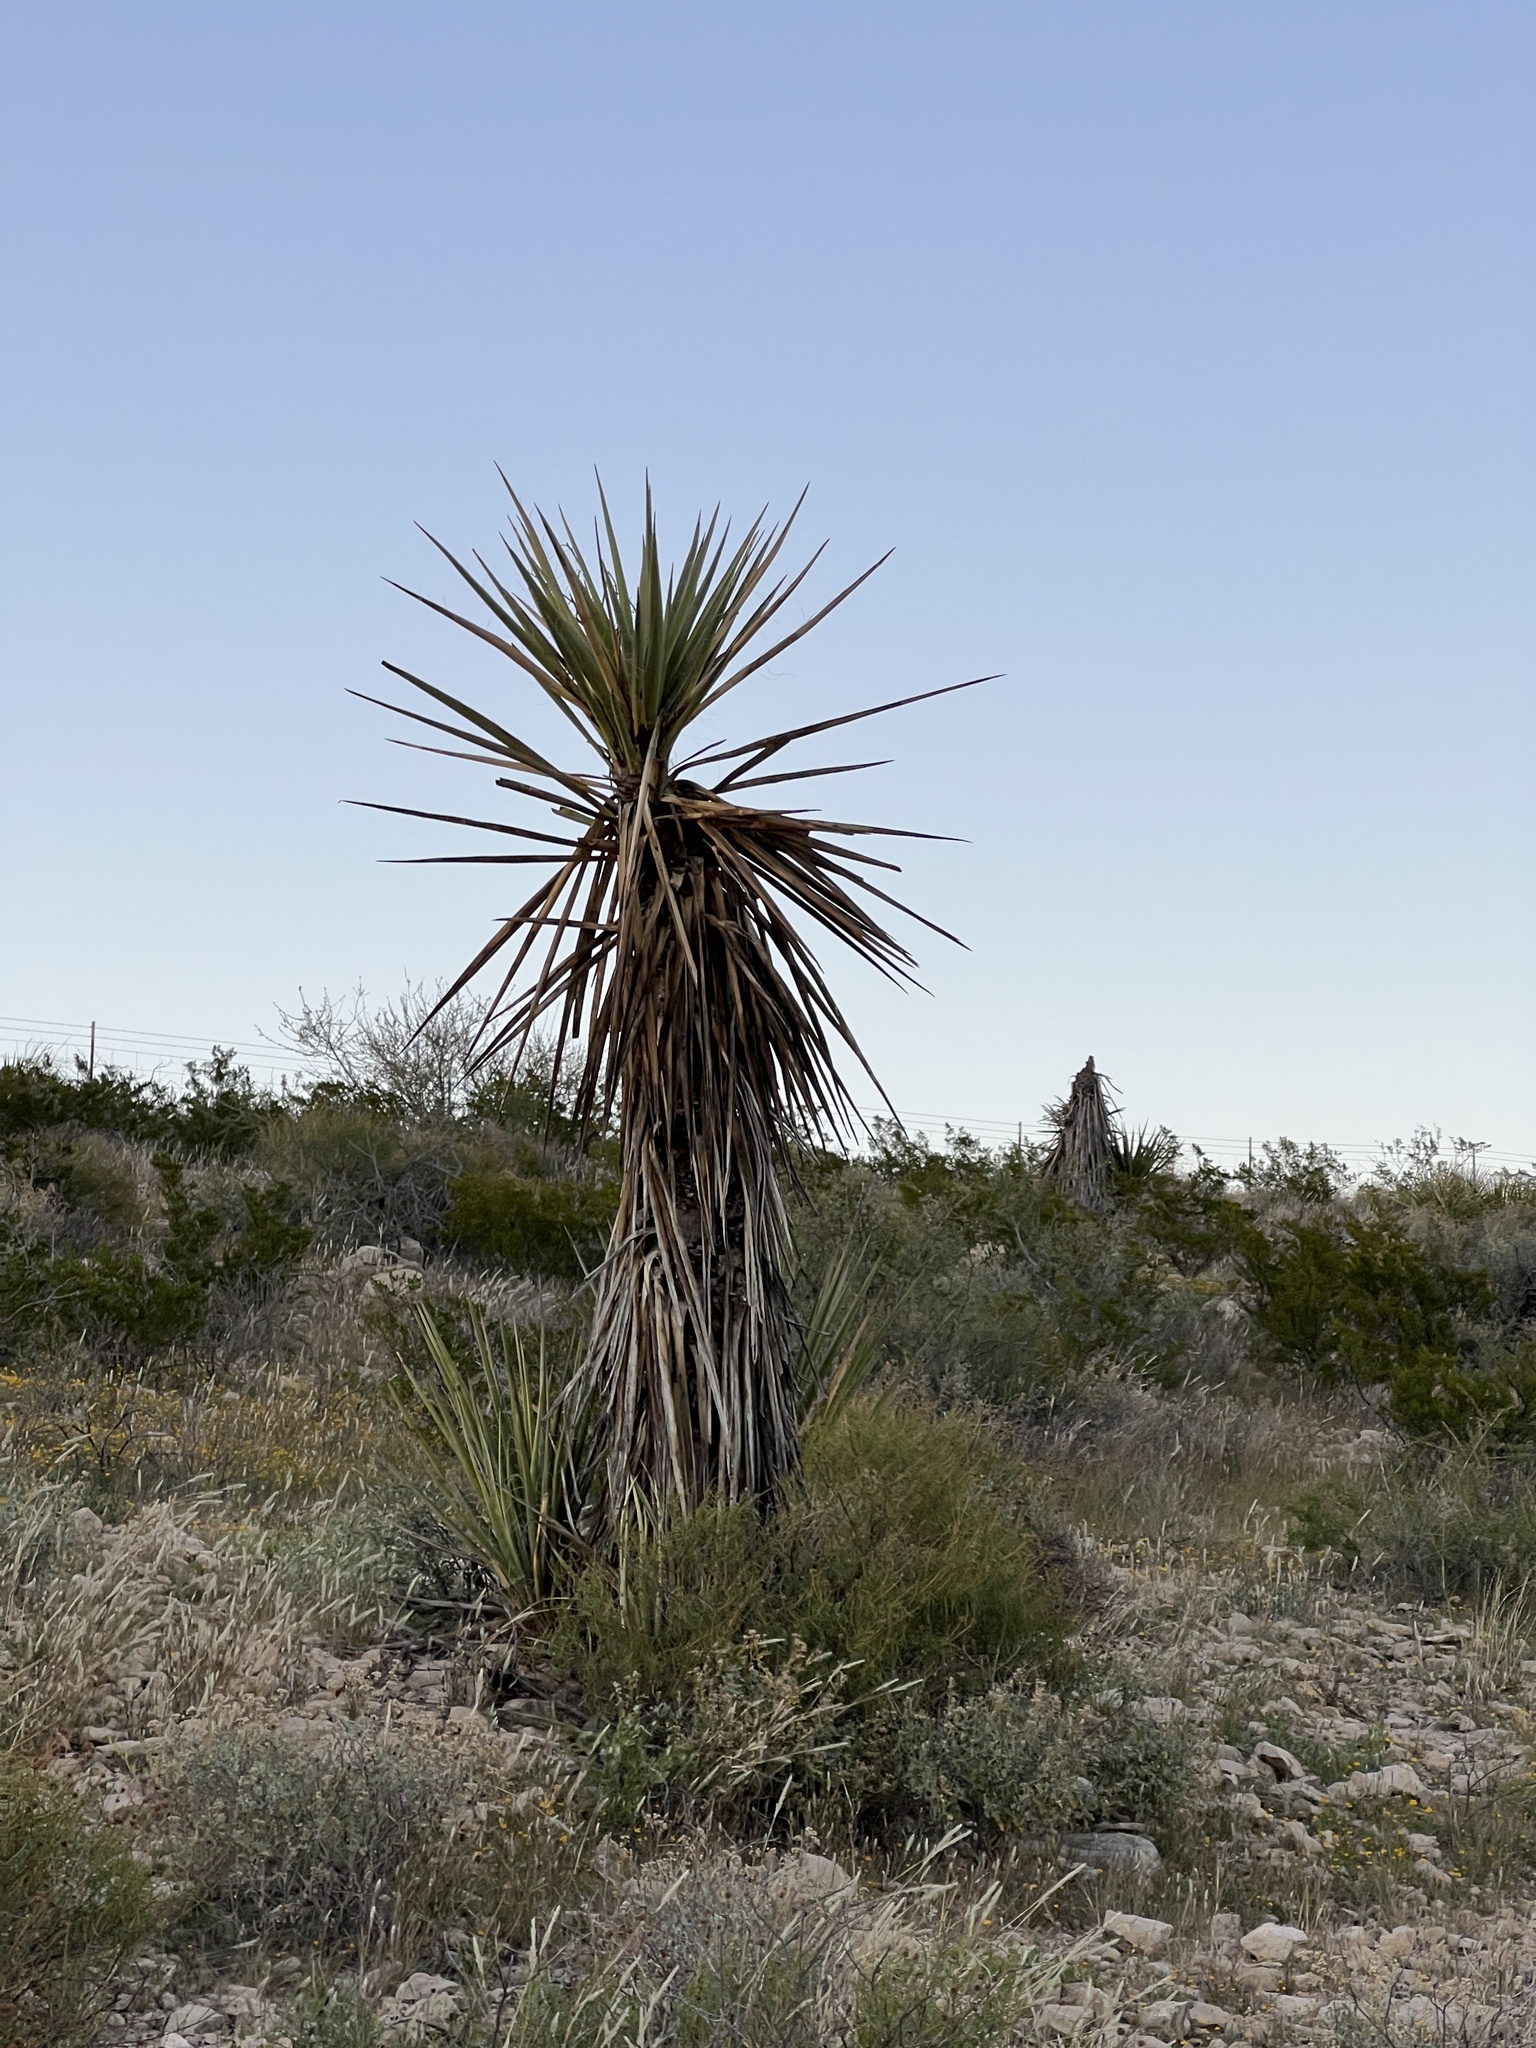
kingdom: Plantae
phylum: Tracheophyta
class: Liliopsida
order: Asparagales
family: Asparagaceae
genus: Yucca
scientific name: Yucca treculiana
